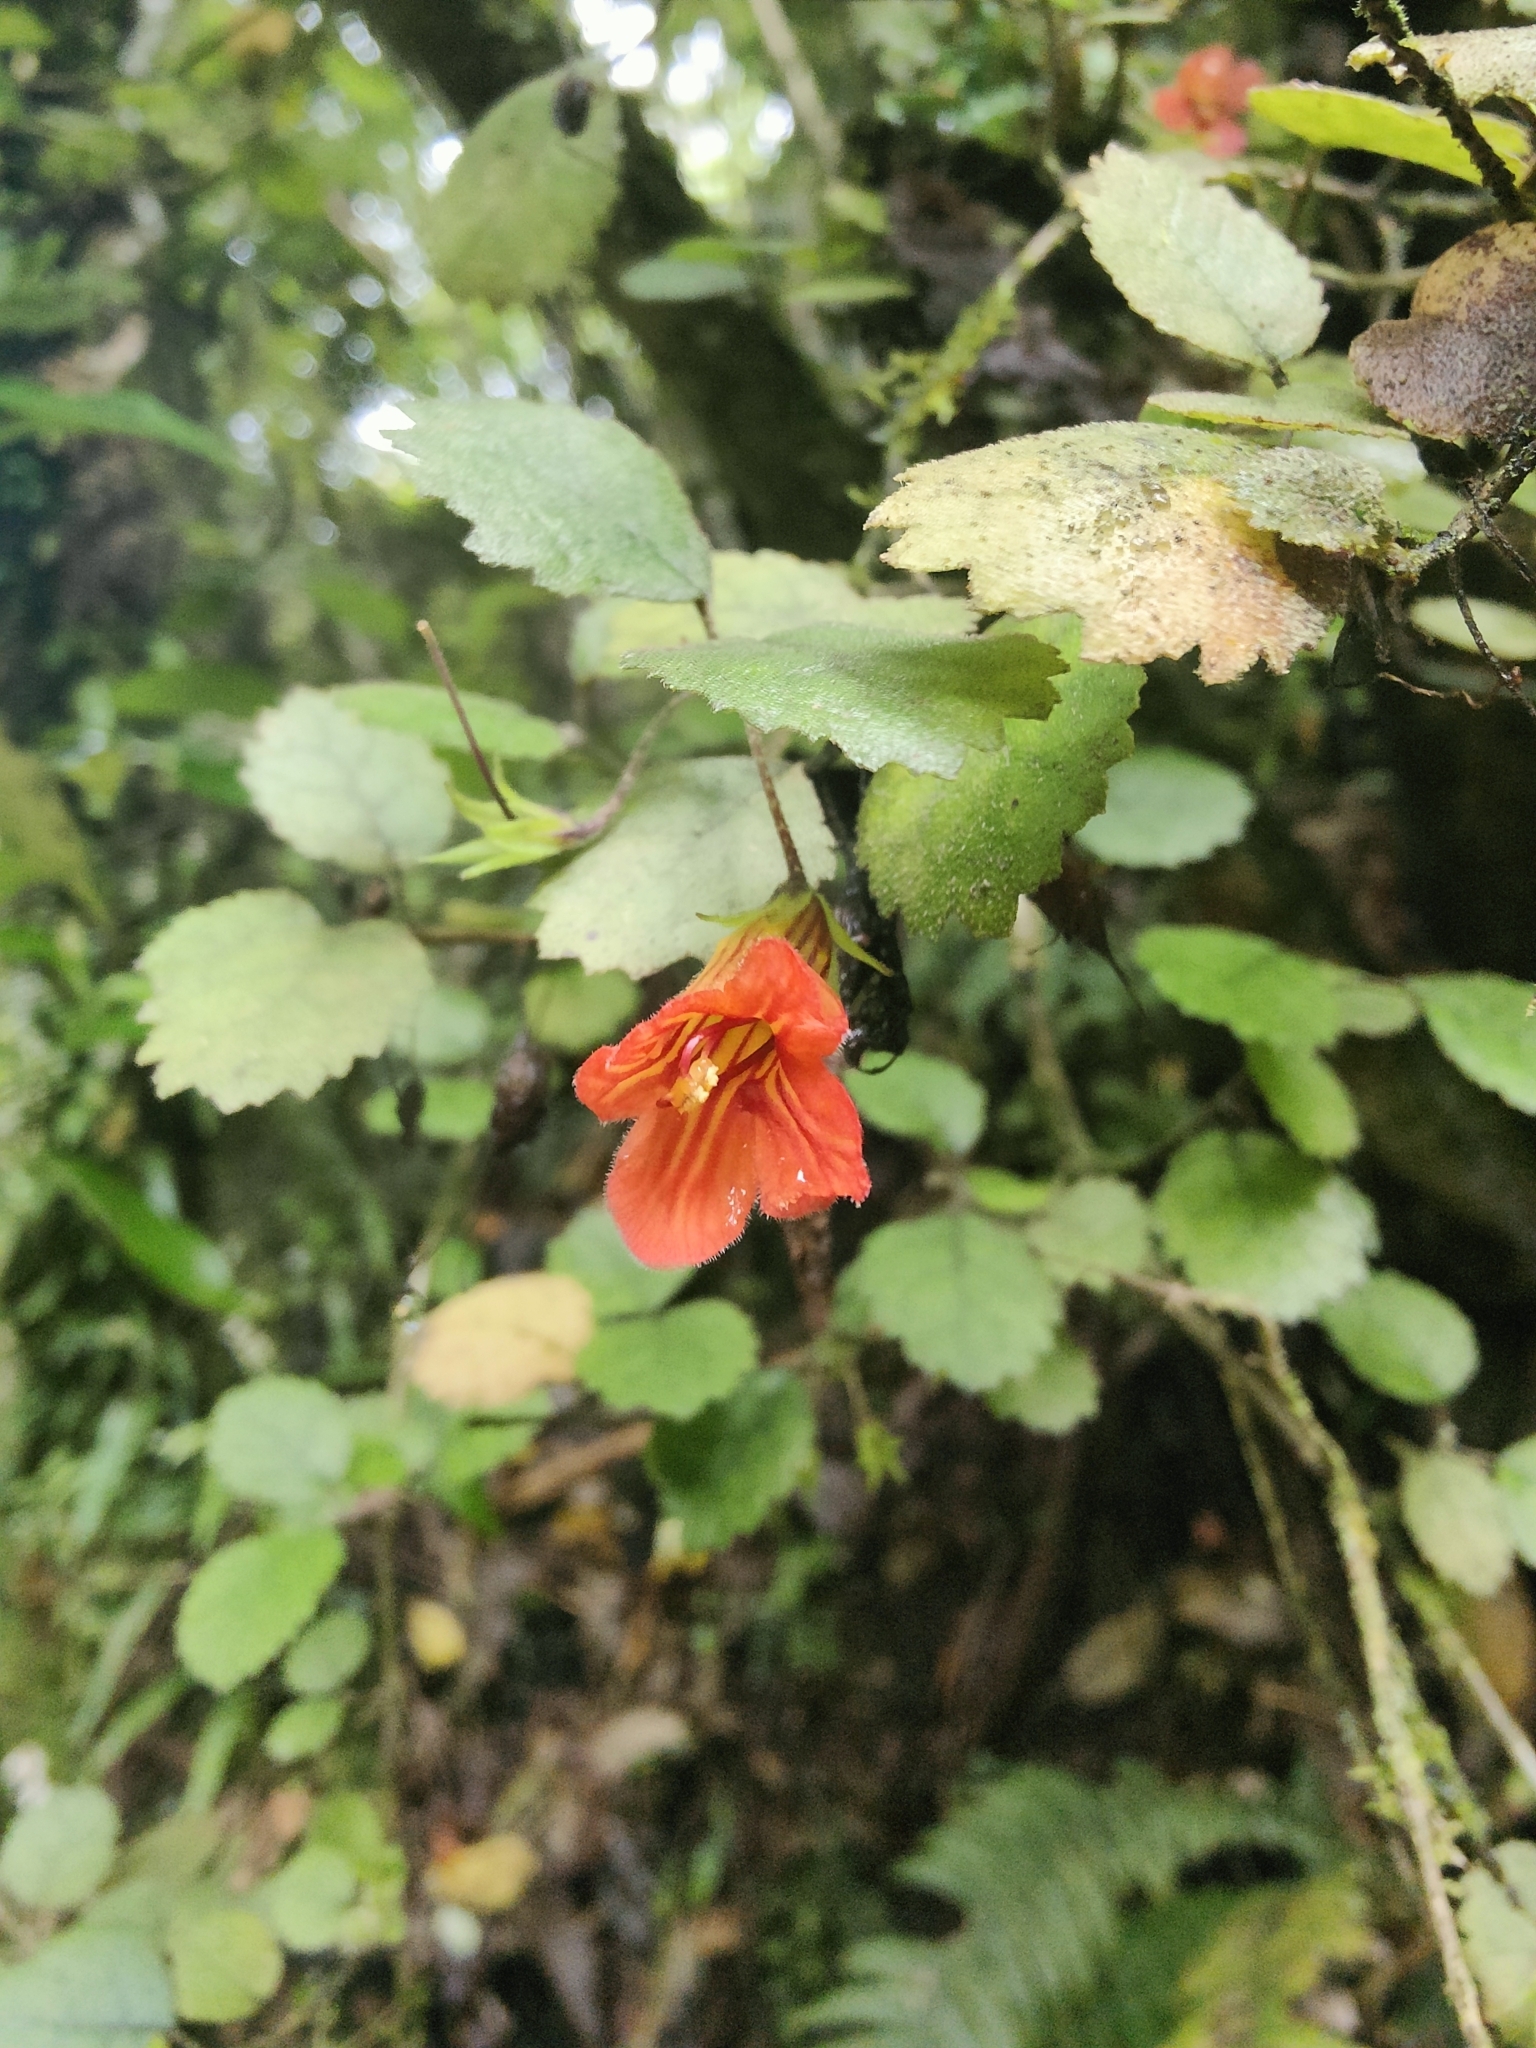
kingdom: Plantae
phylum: Tracheophyta
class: Magnoliopsida
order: Lamiales
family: Gesneriaceae
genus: Rhabdothamnus
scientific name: Rhabdothamnus solandri
